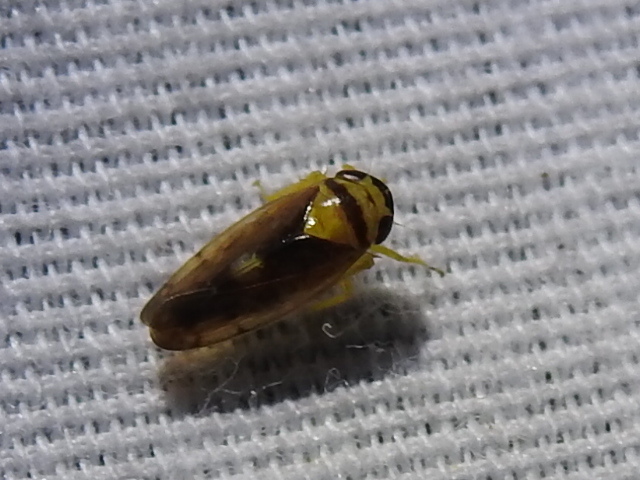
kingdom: Animalia
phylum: Arthropoda
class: Insecta
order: Hemiptera
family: Cicadellidae
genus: Eutettix
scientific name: Eutettix pictus
